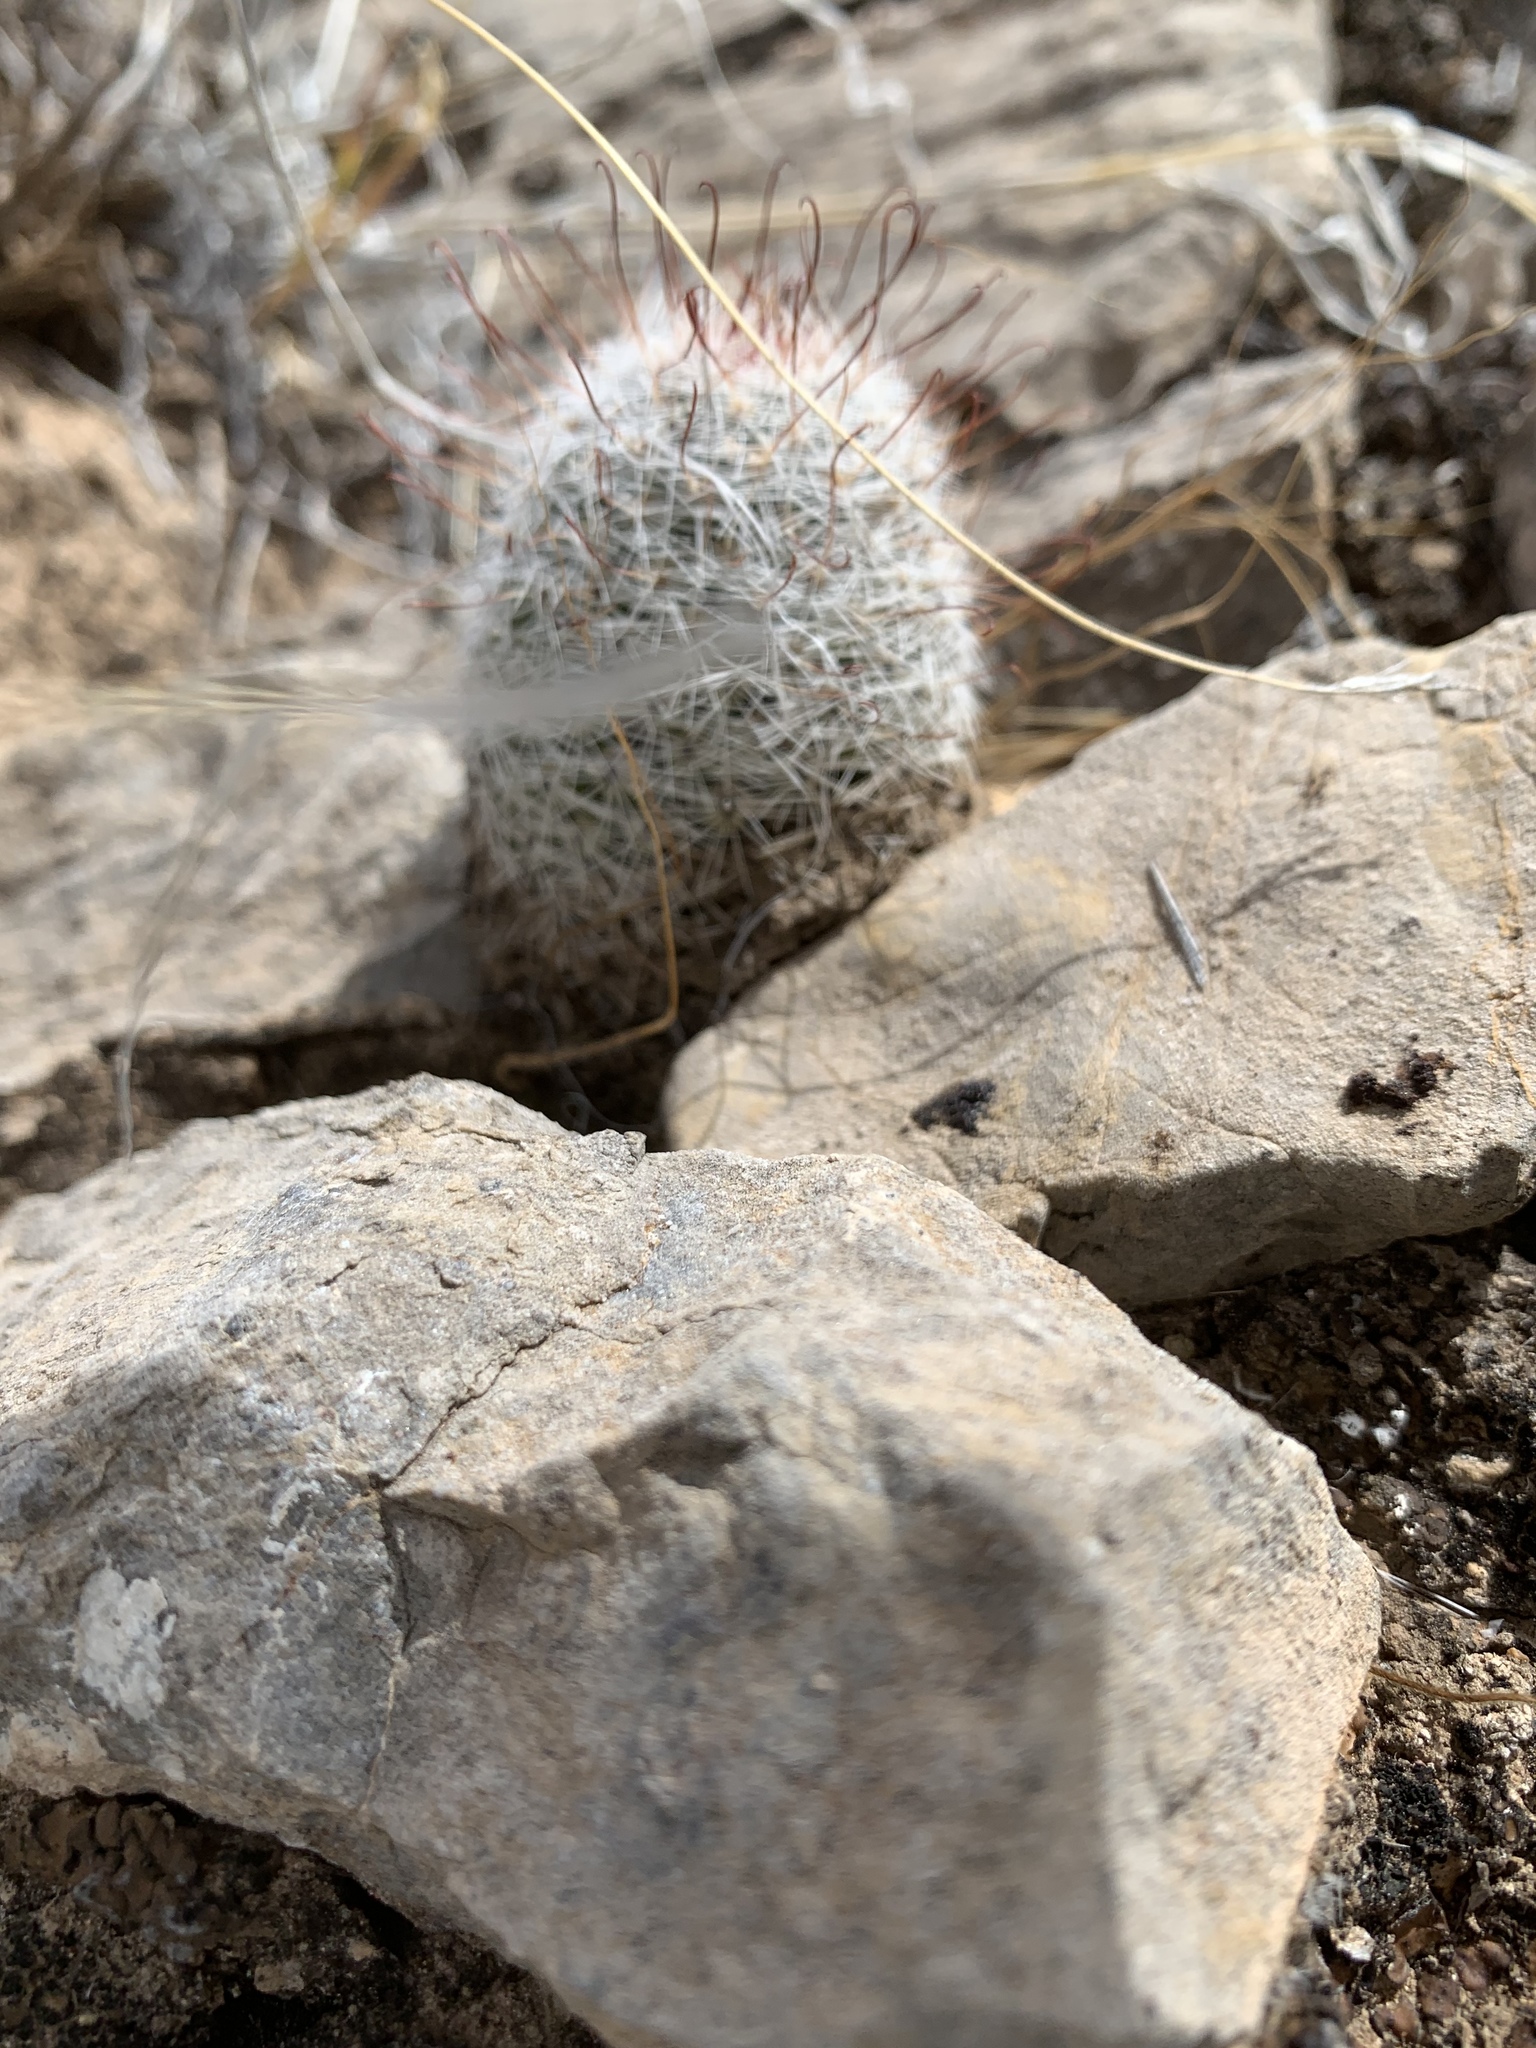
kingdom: Plantae
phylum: Tracheophyta
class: Magnoliopsida
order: Caryophyllales
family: Cactaceae
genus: Cochemiea
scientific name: Cochemiea grahamii
